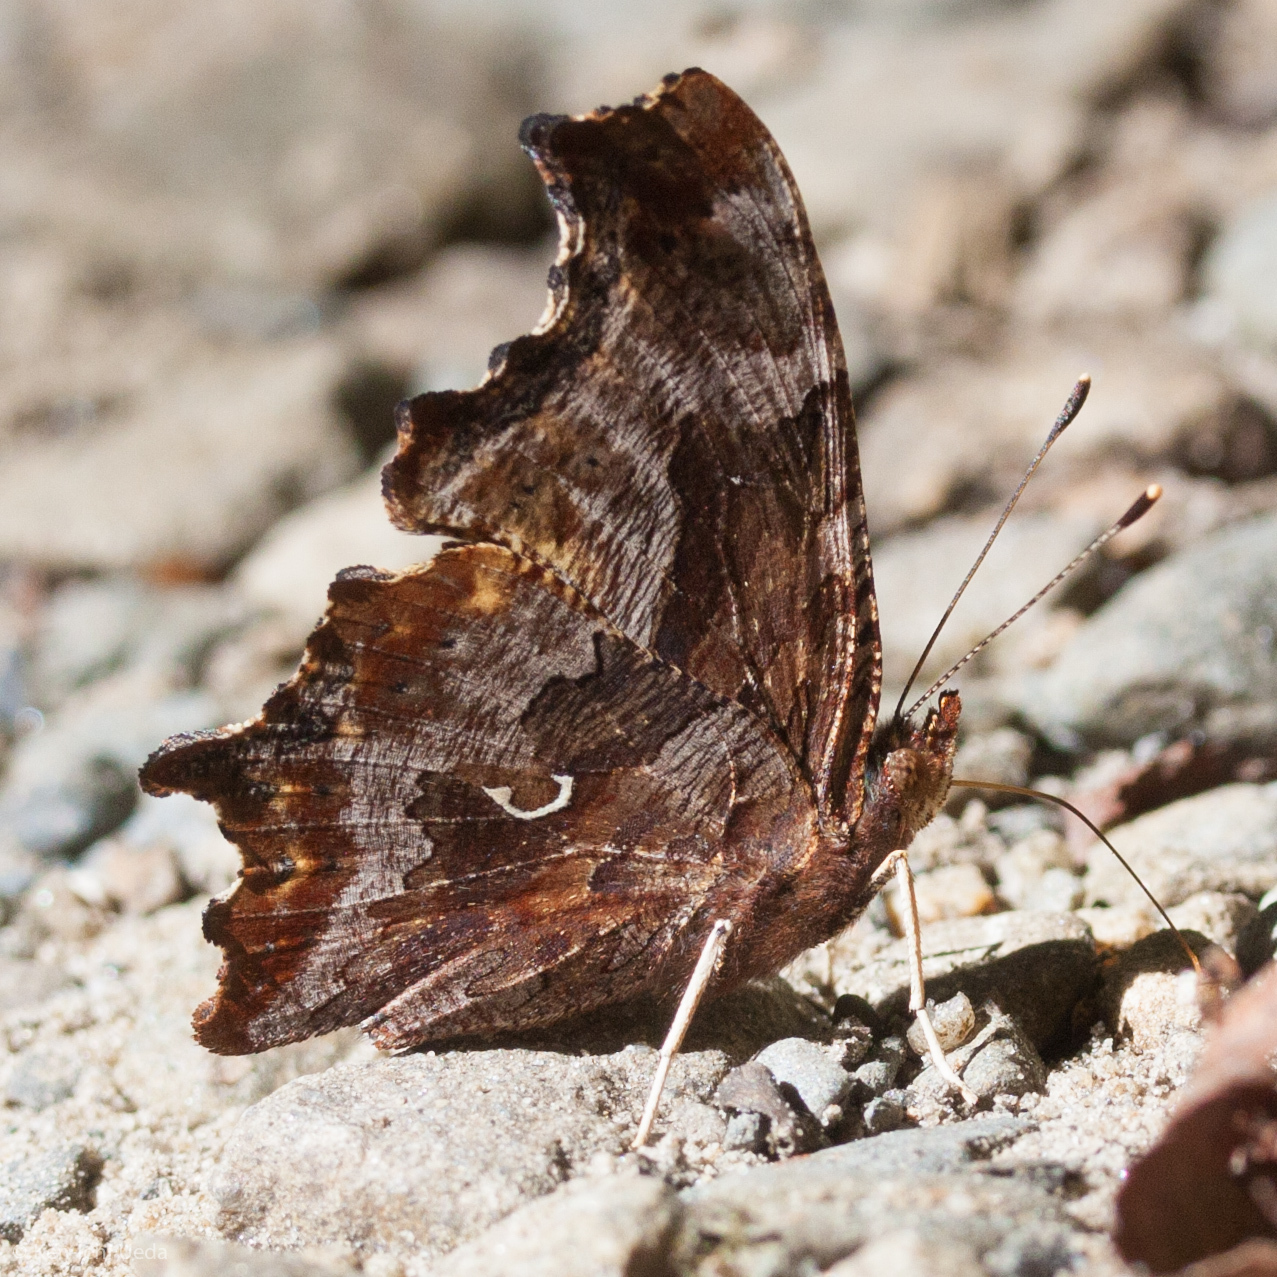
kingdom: Animalia
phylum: Arthropoda
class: Insecta
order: Lepidoptera
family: Nymphalidae
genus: Polygonia
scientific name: Polygonia comma
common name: Eastern comma
